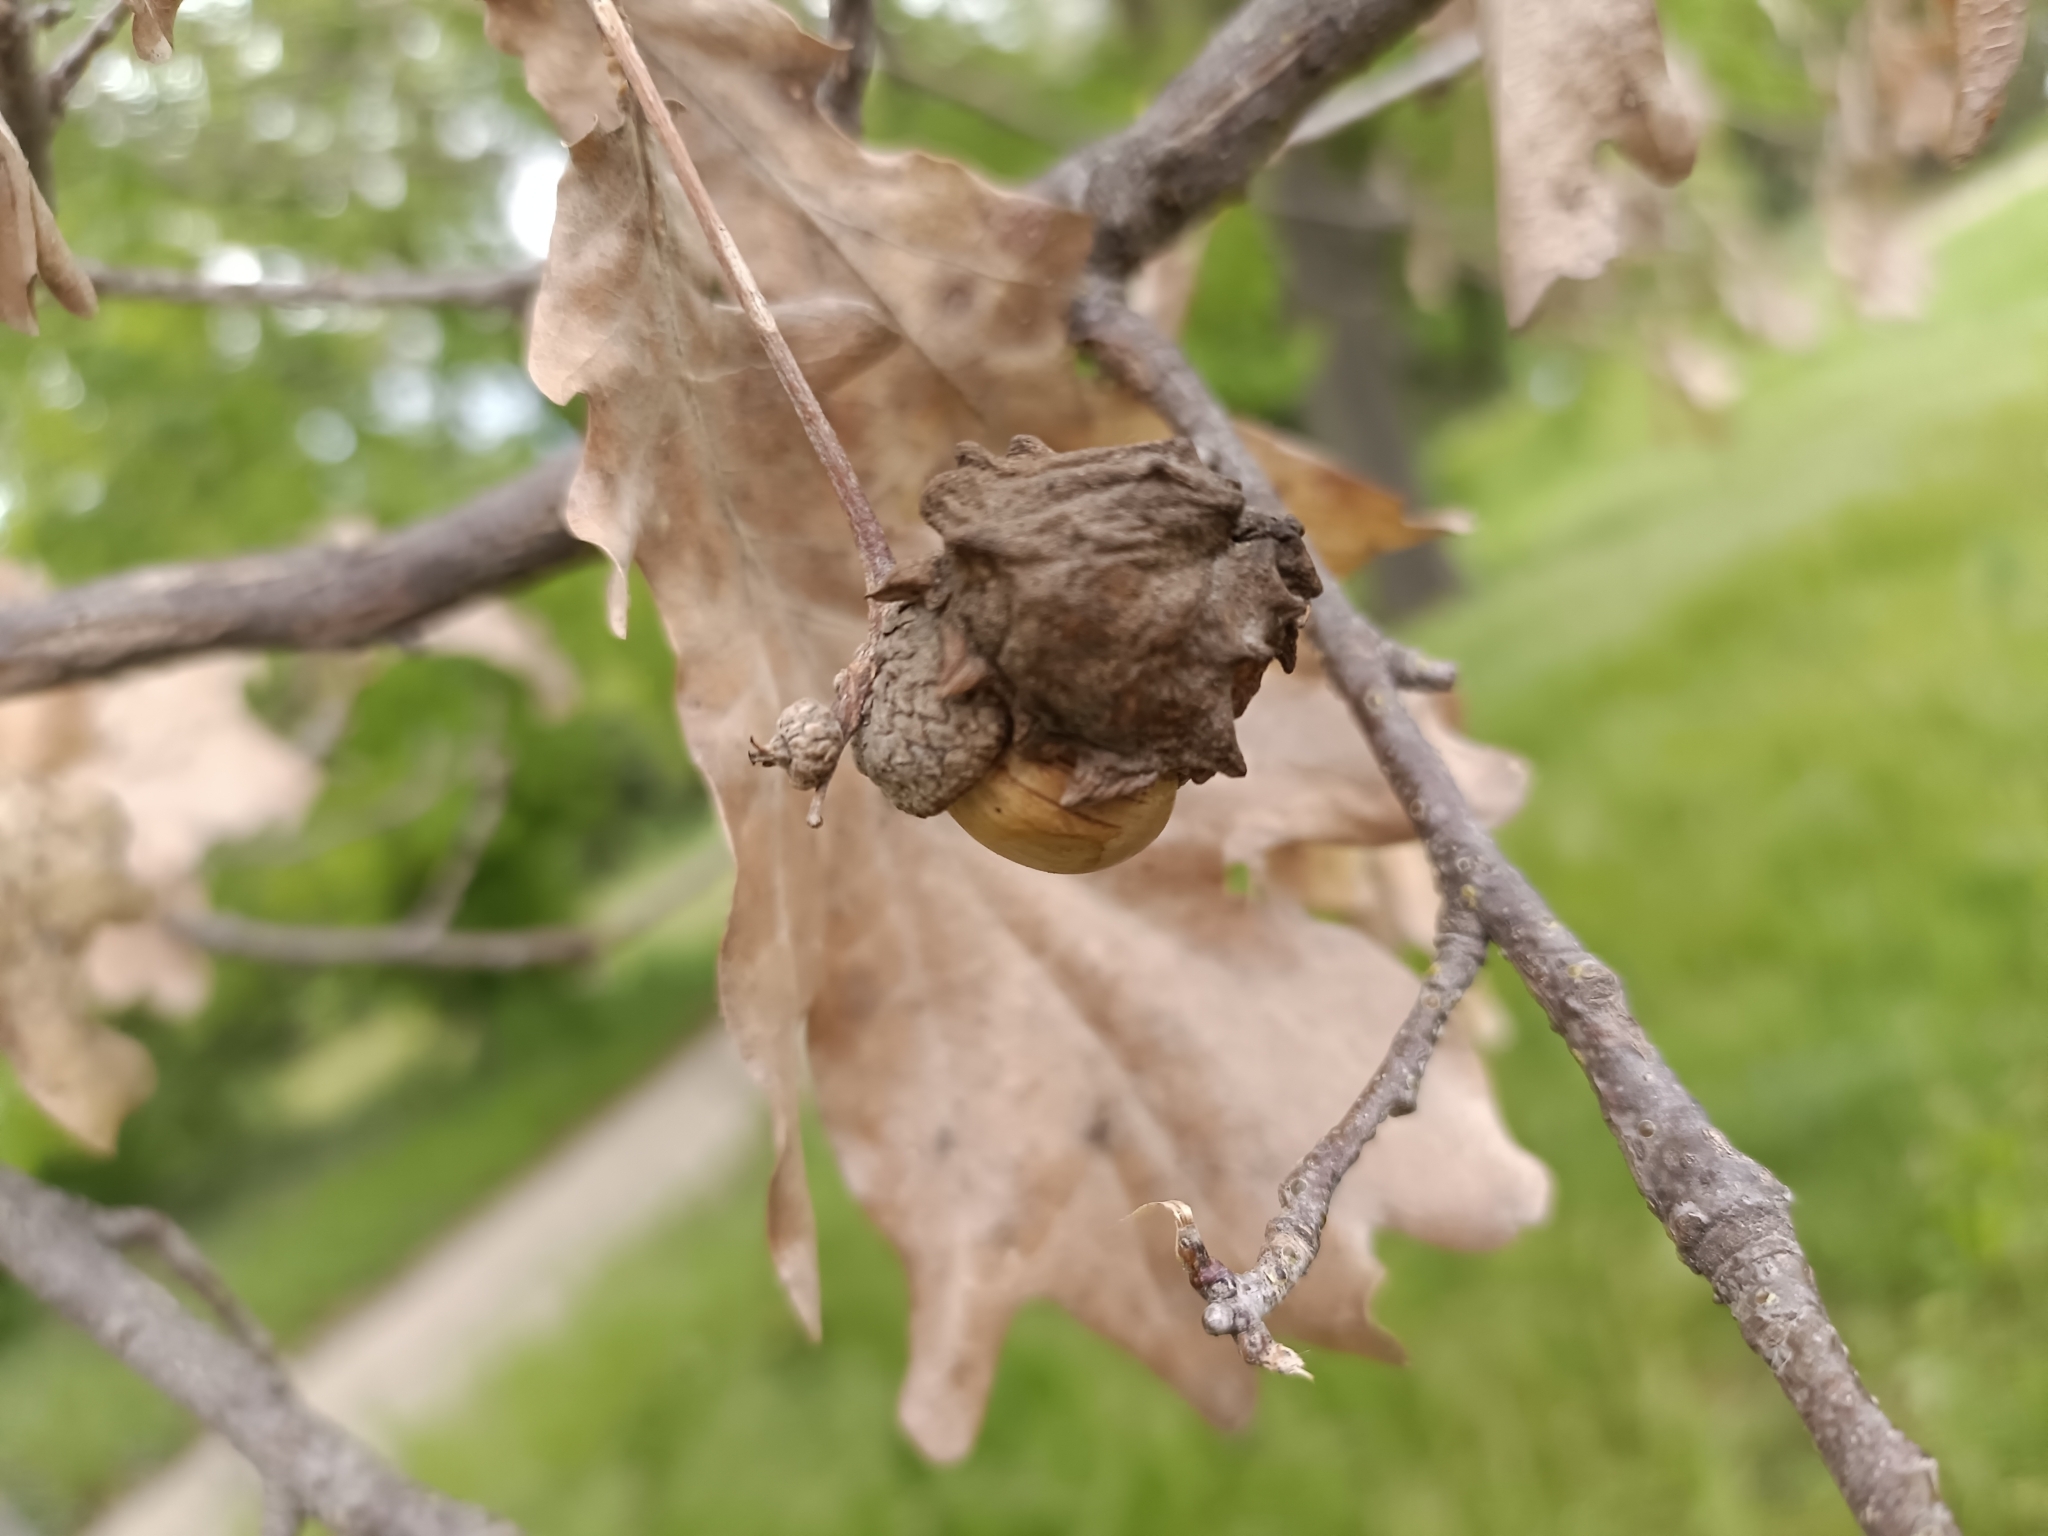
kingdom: Animalia
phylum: Arthropoda
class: Insecta
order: Hymenoptera
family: Cynipidae
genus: Andricus
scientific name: Andricus quercuscalicis
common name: Knopper gall
